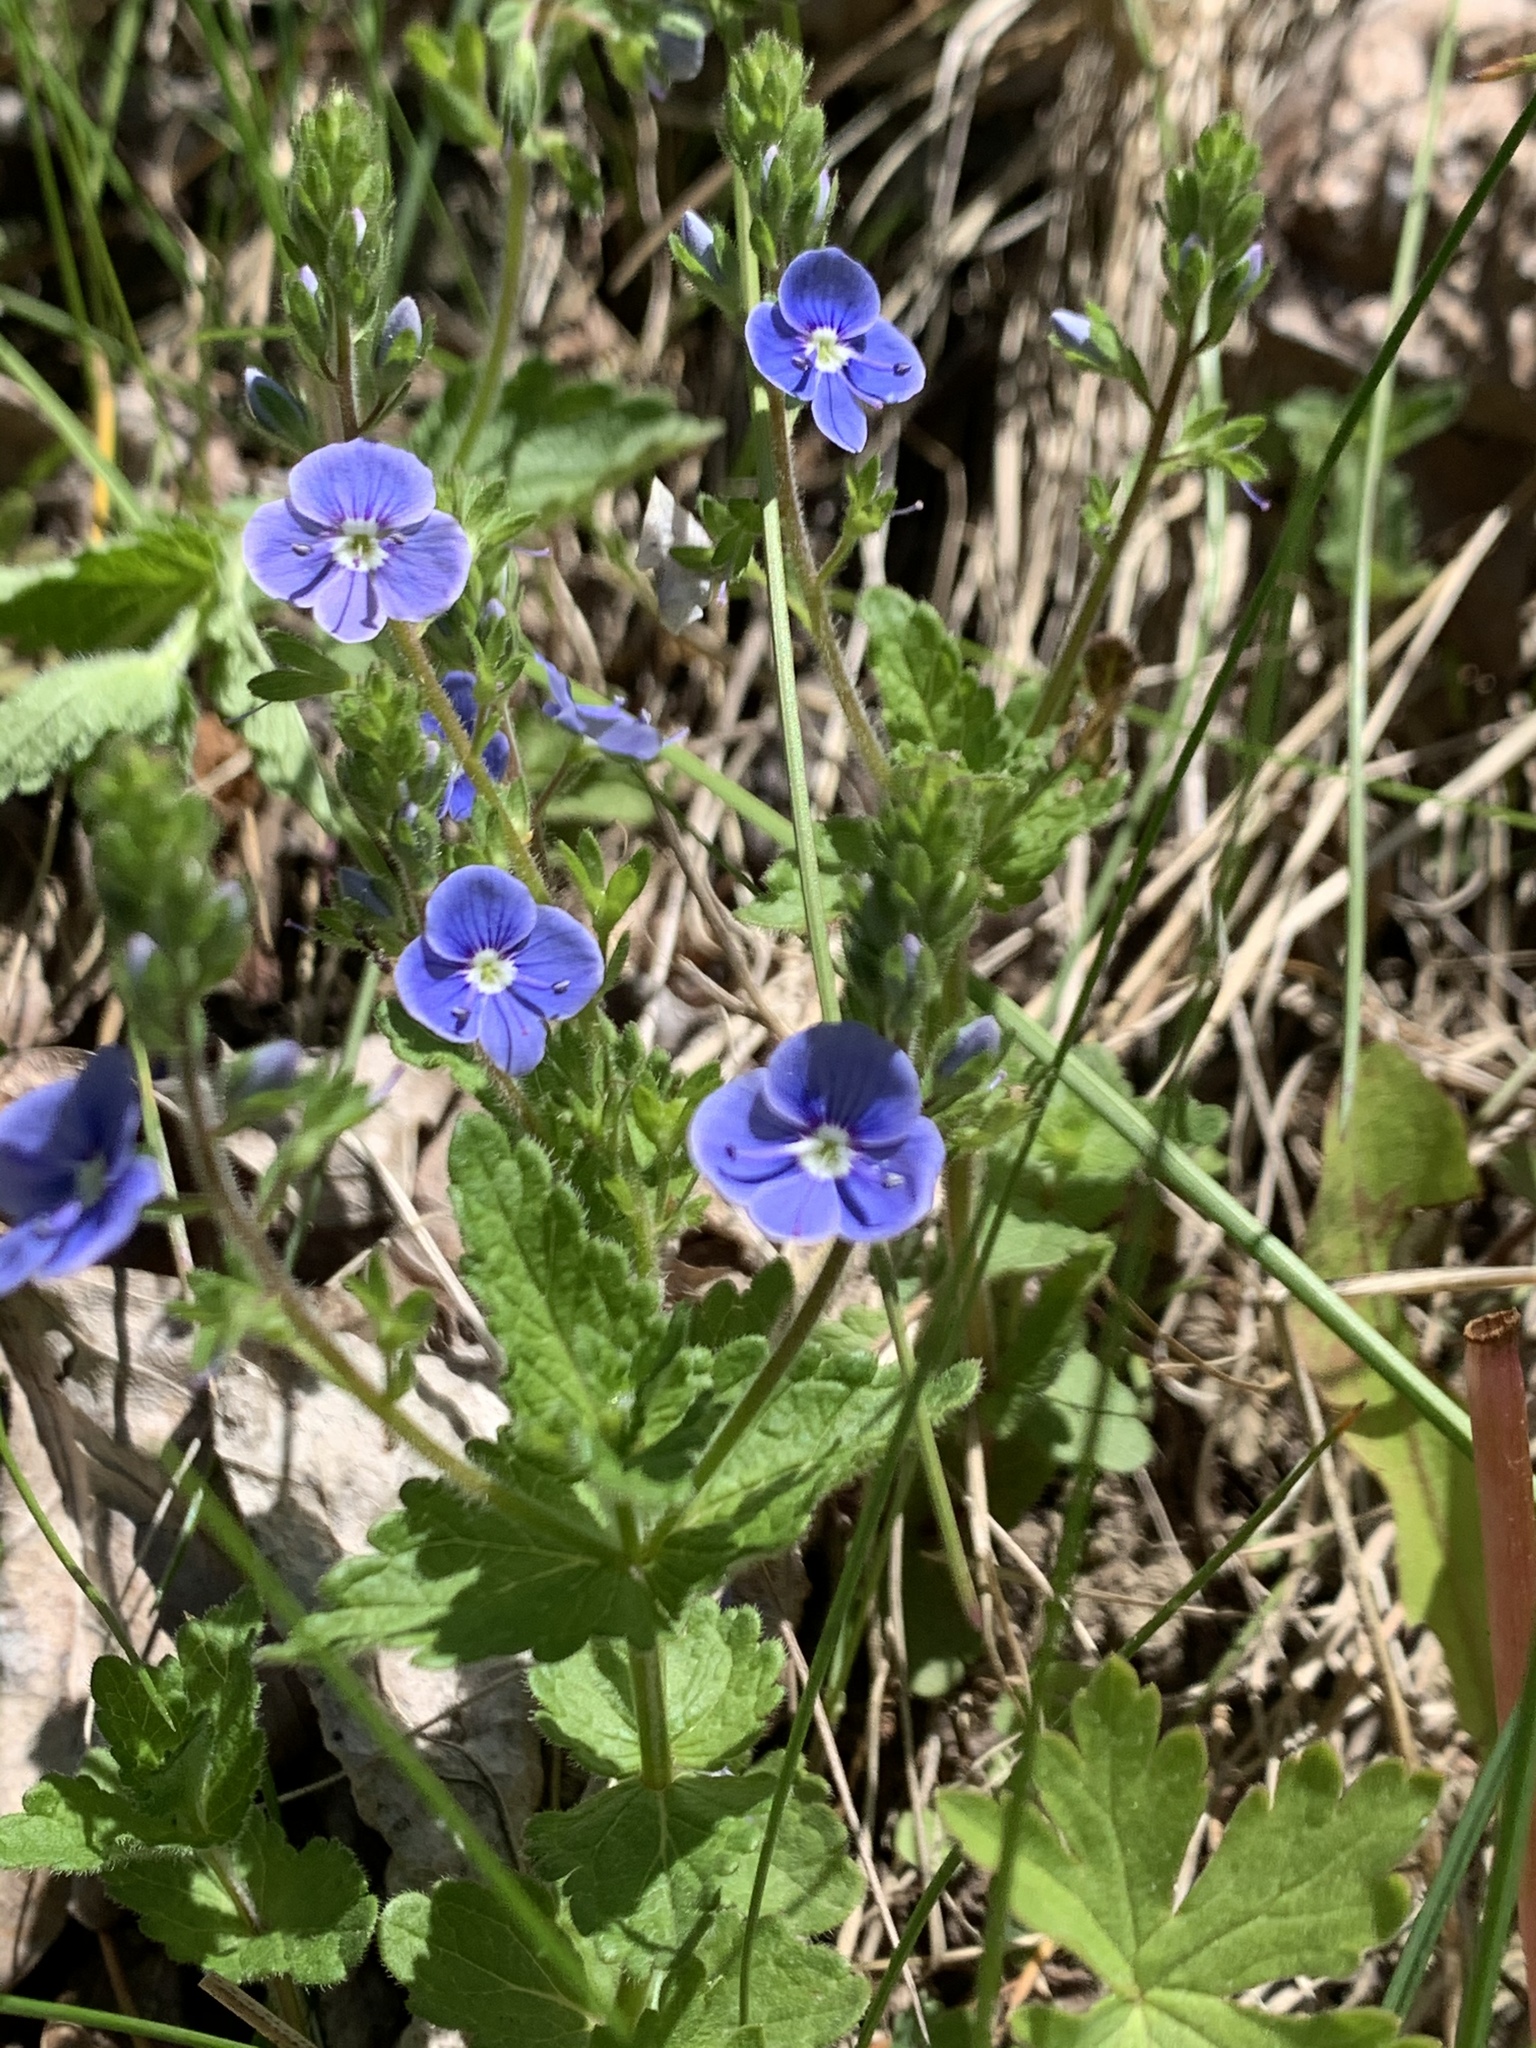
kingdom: Plantae
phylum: Tracheophyta
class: Magnoliopsida
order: Lamiales
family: Plantaginaceae
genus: Veronica
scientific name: Veronica chamaedrys
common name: Germander speedwell
